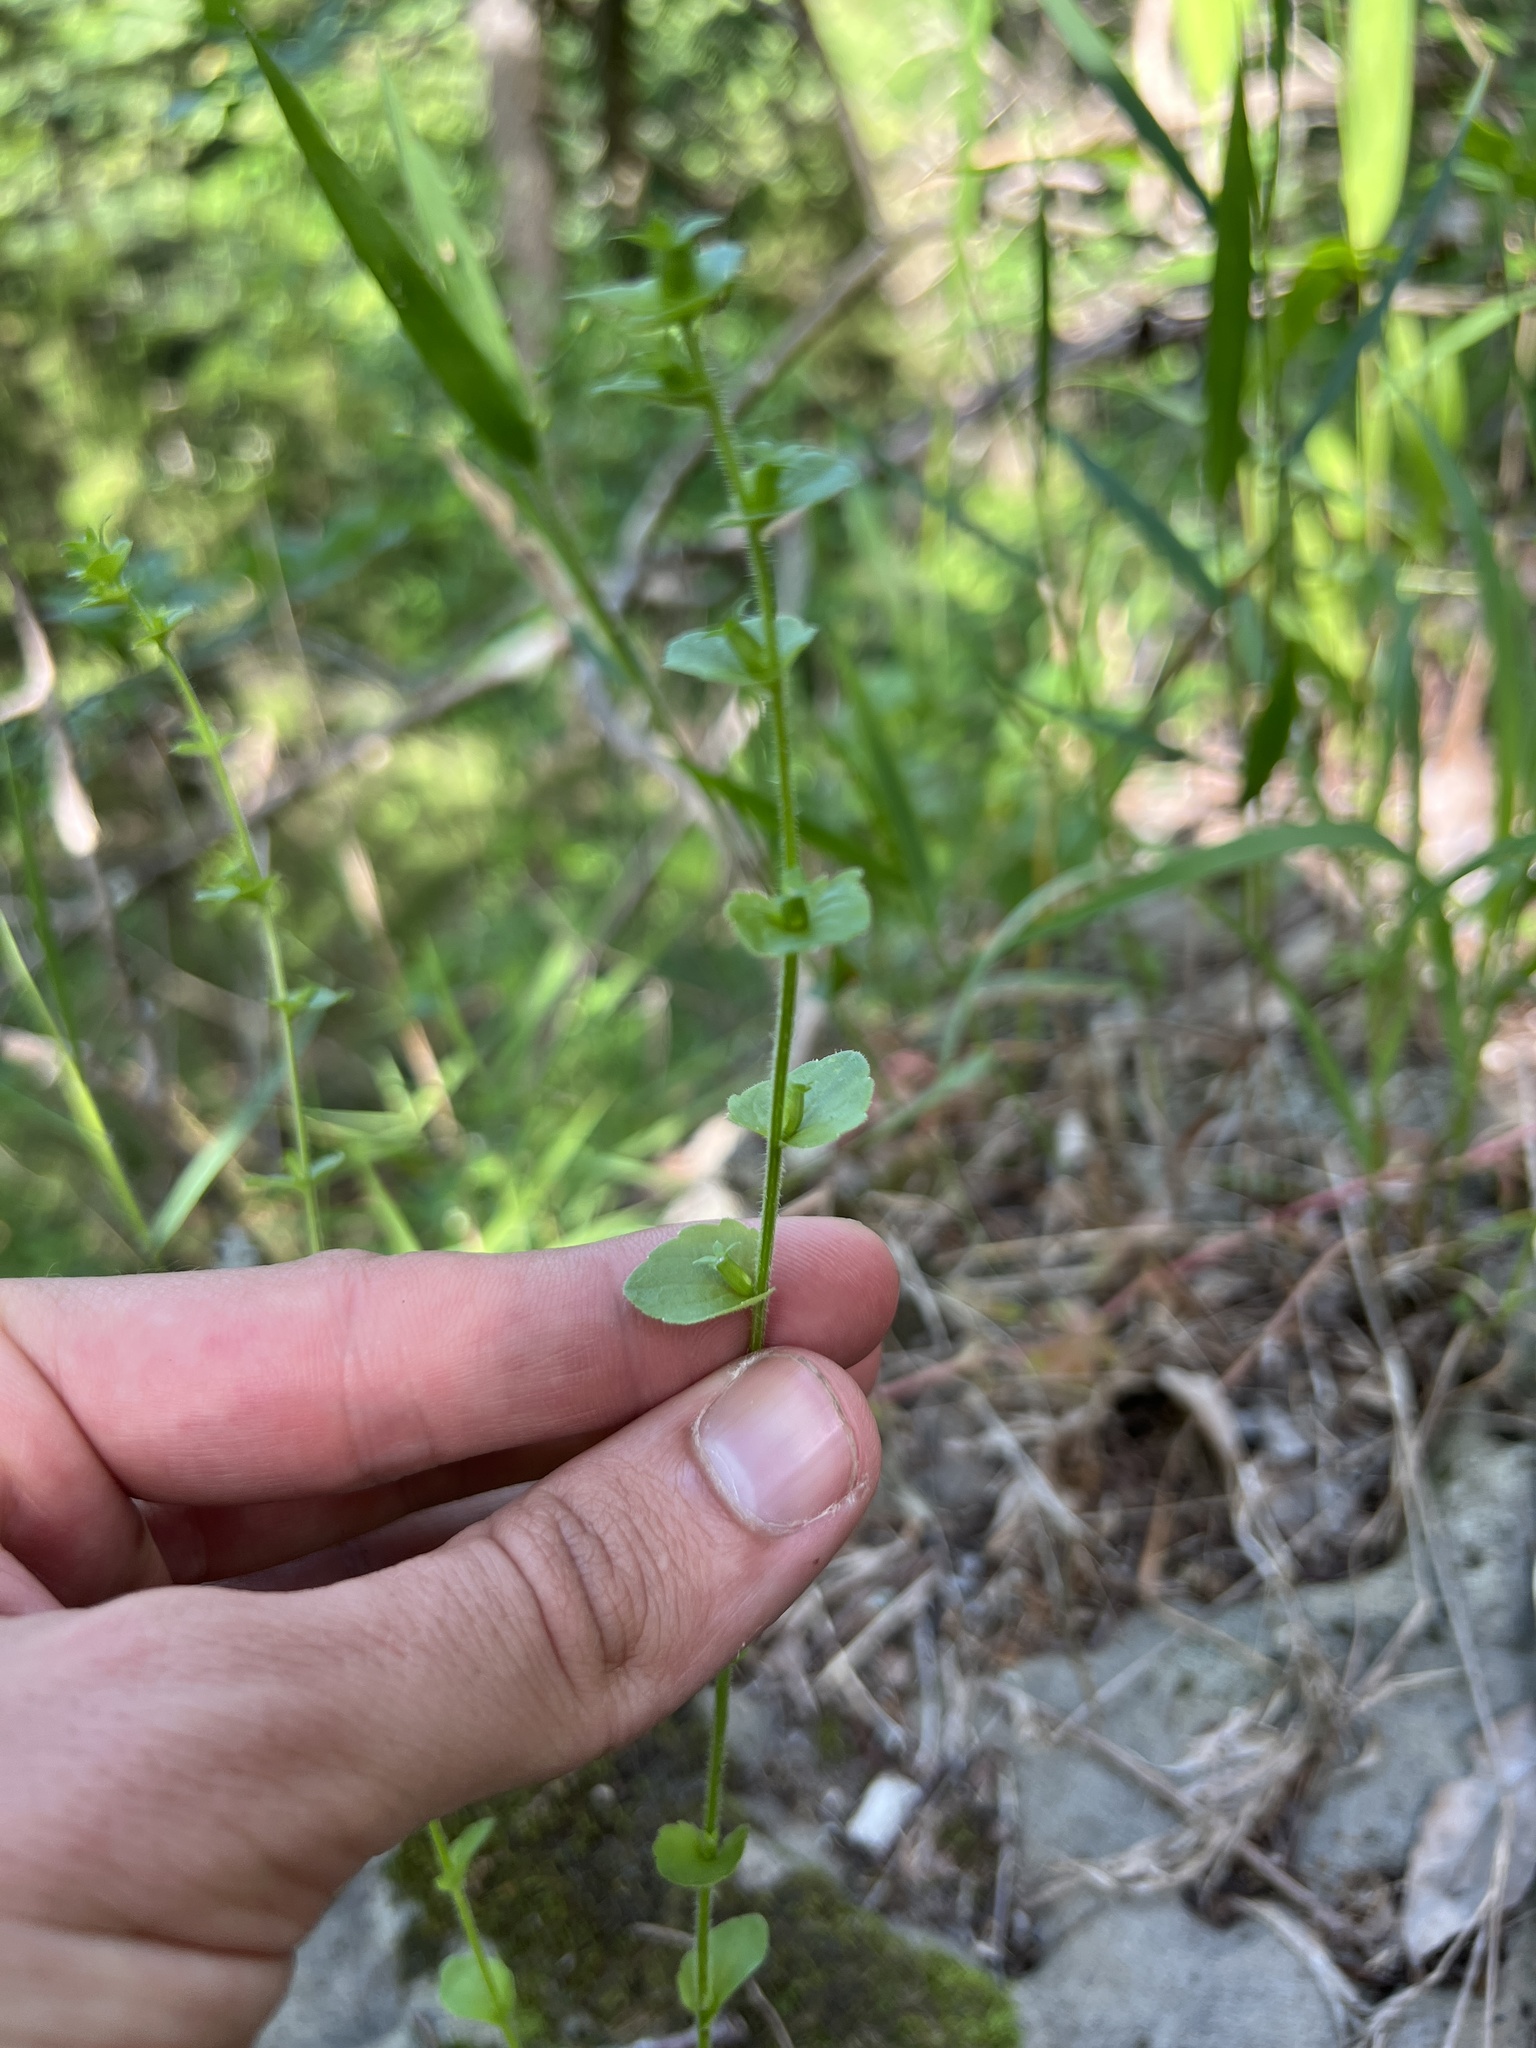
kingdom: Plantae
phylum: Tracheophyta
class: Magnoliopsida
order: Asterales
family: Campanulaceae
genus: Triodanis
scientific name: Triodanis perfoliata
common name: Clasping venus' looking-glass
